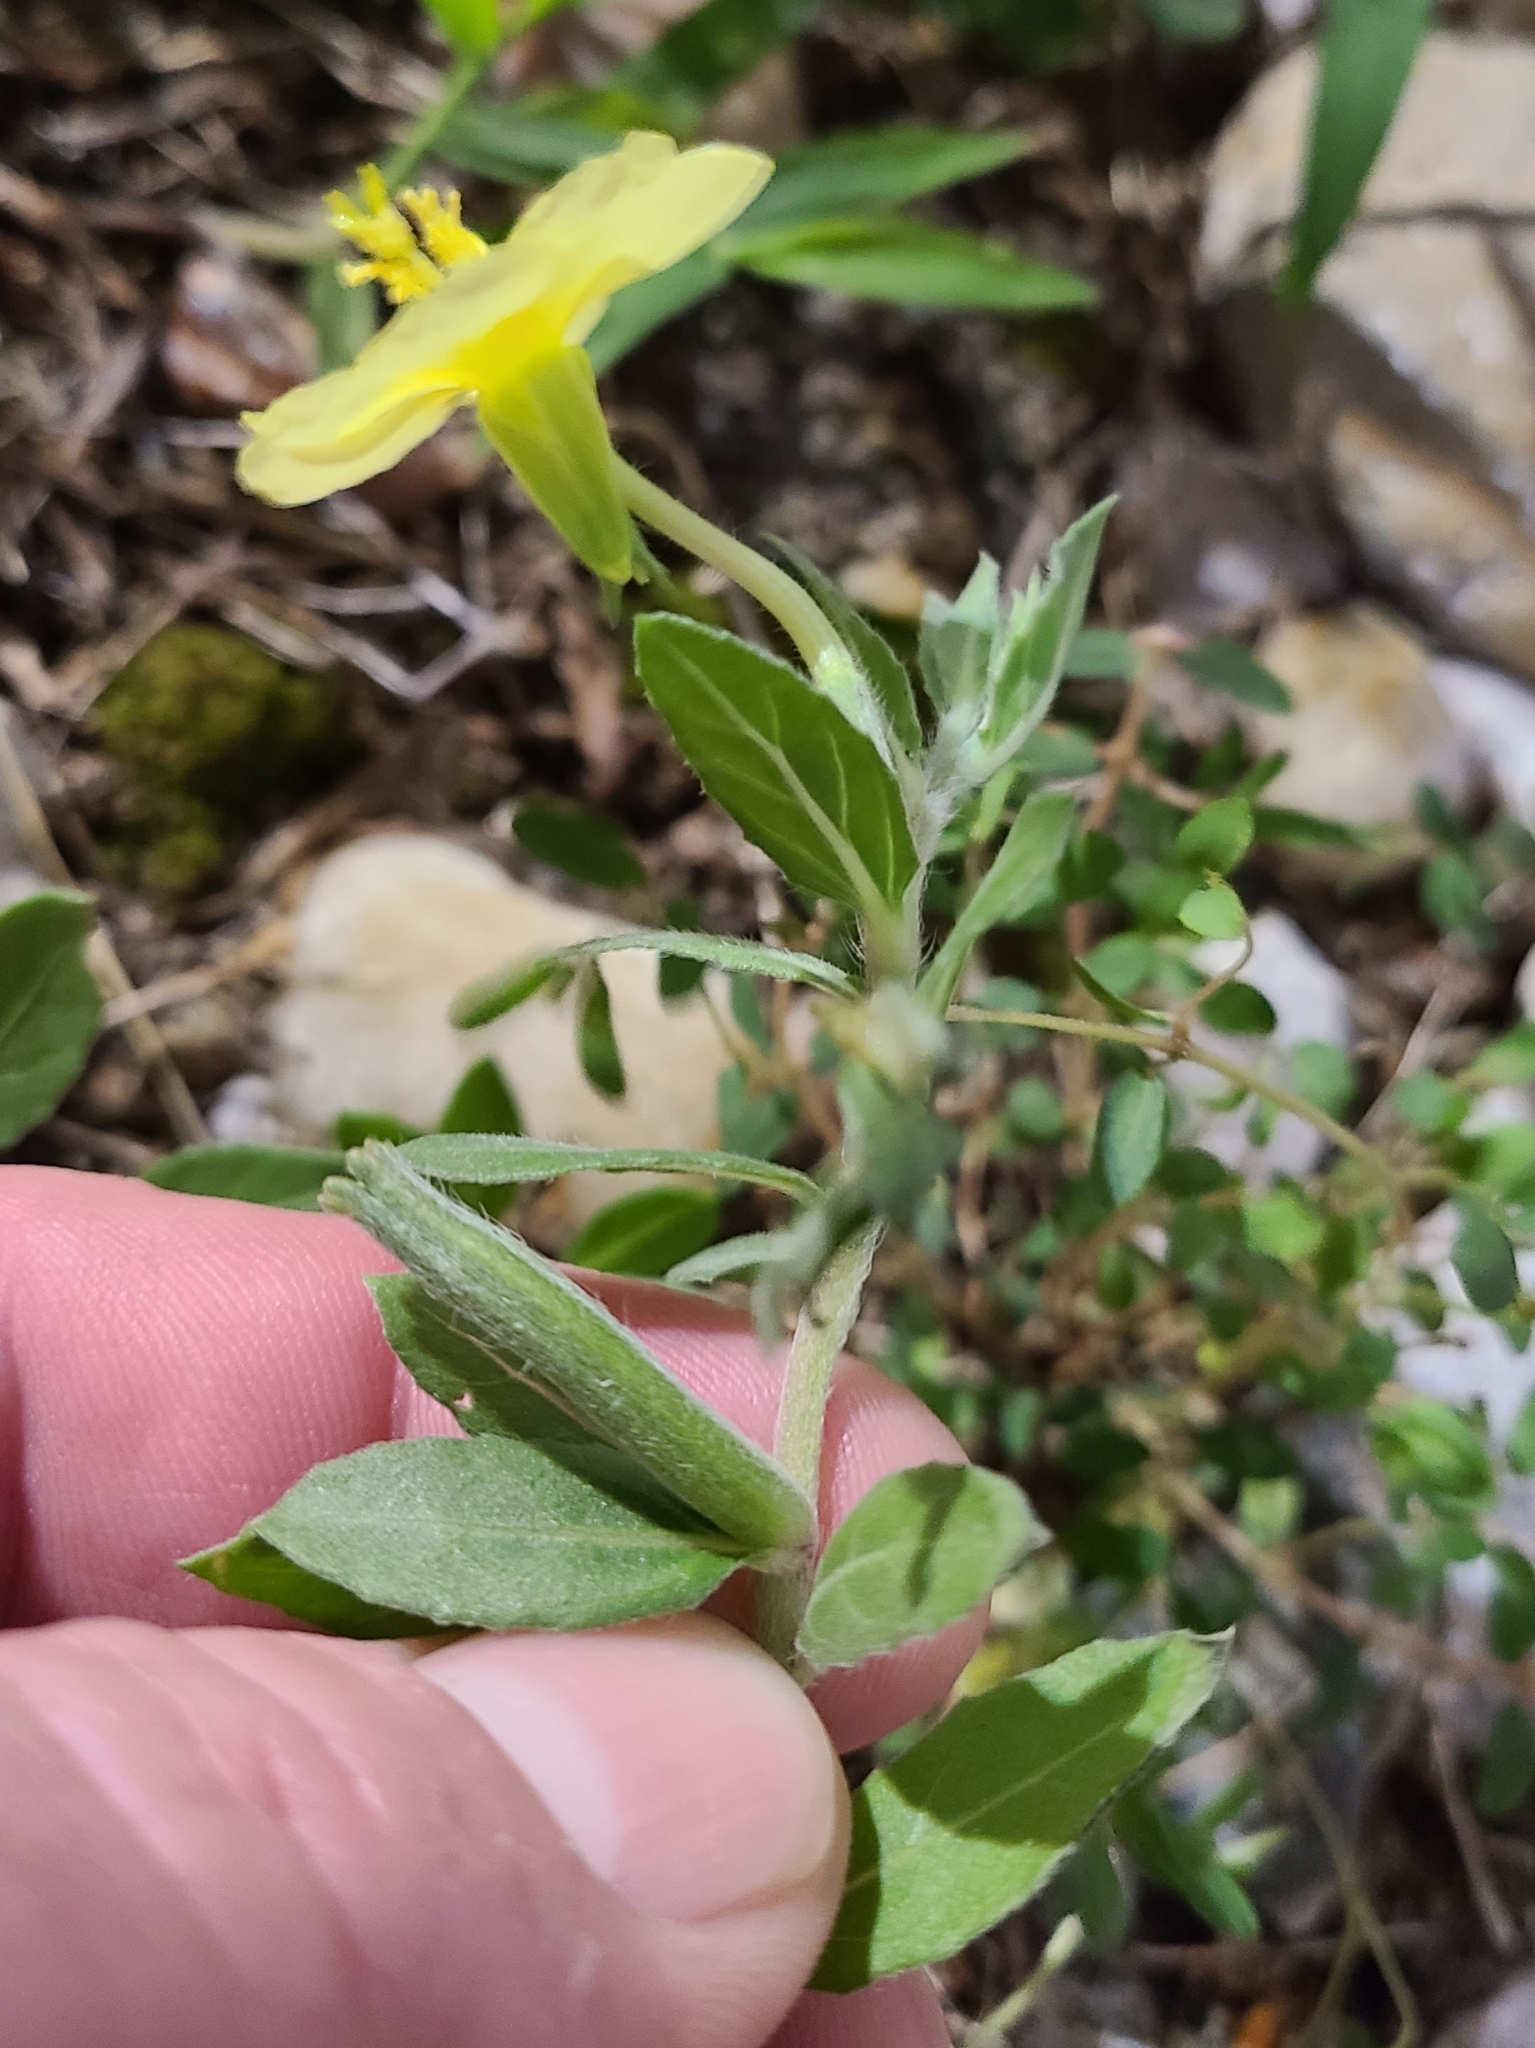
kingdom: Plantae
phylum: Tracheophyta
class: Magnoliopsida
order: Myrtales
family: Onagraceae
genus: Oenothera
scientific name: Oenothera humifusa
